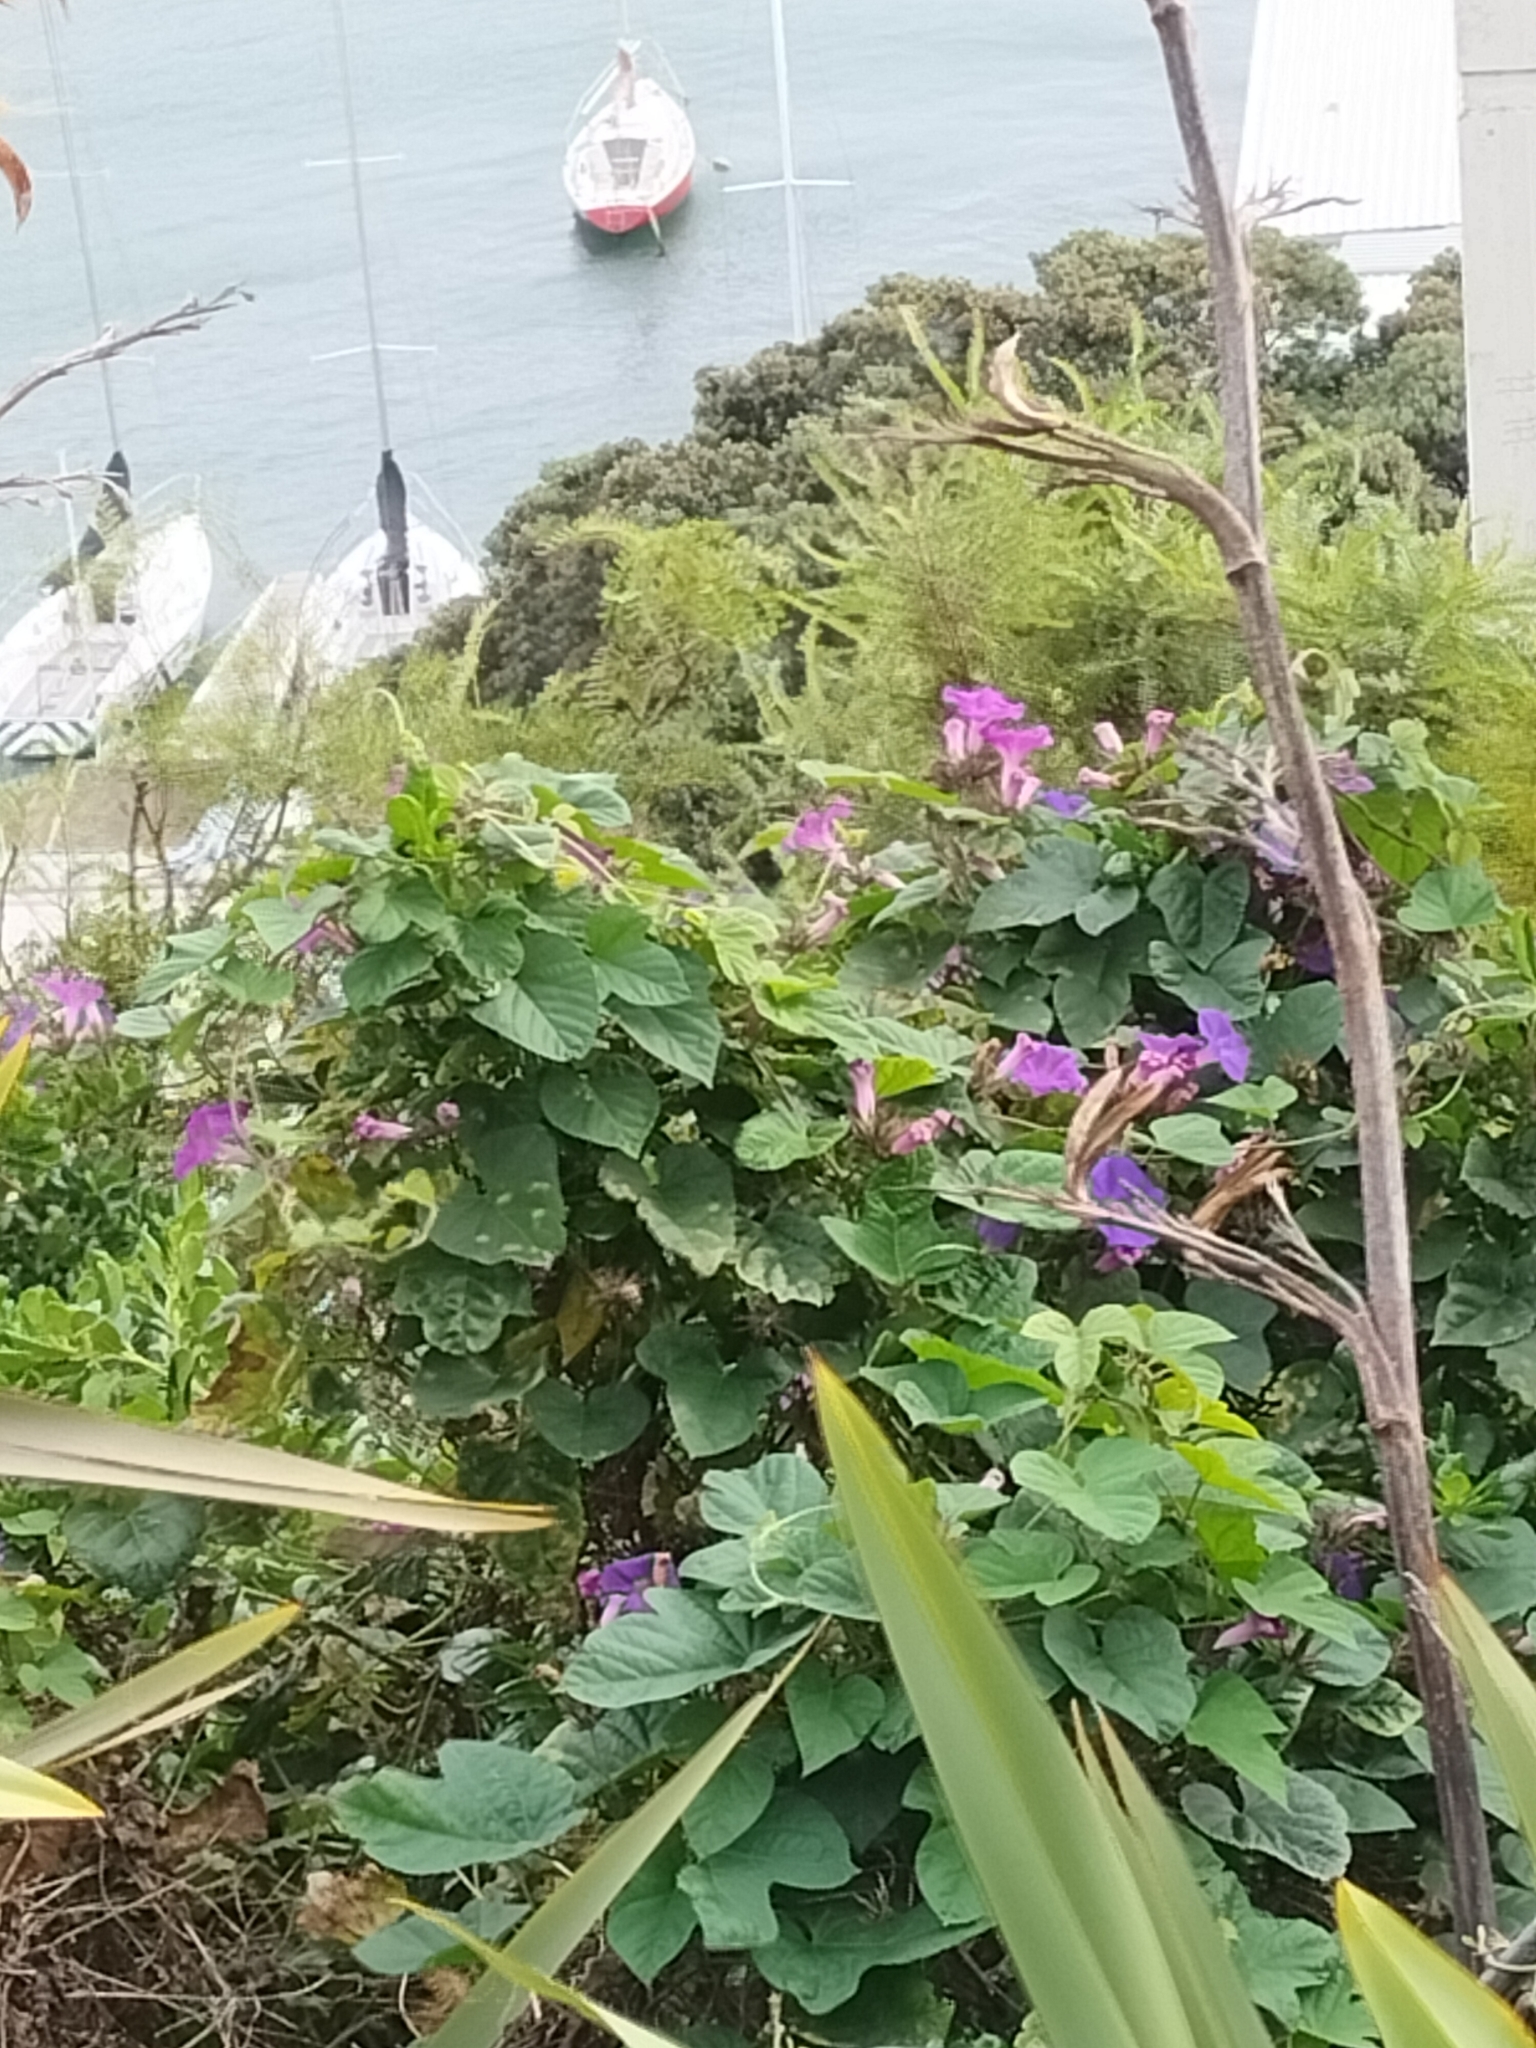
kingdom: Plantae
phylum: Tracheophyta
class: Magnoliopsida
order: Solanales
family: Convolvulaceae
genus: Ipomoea
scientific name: Ipomoea indica
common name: Blue dawnflower
